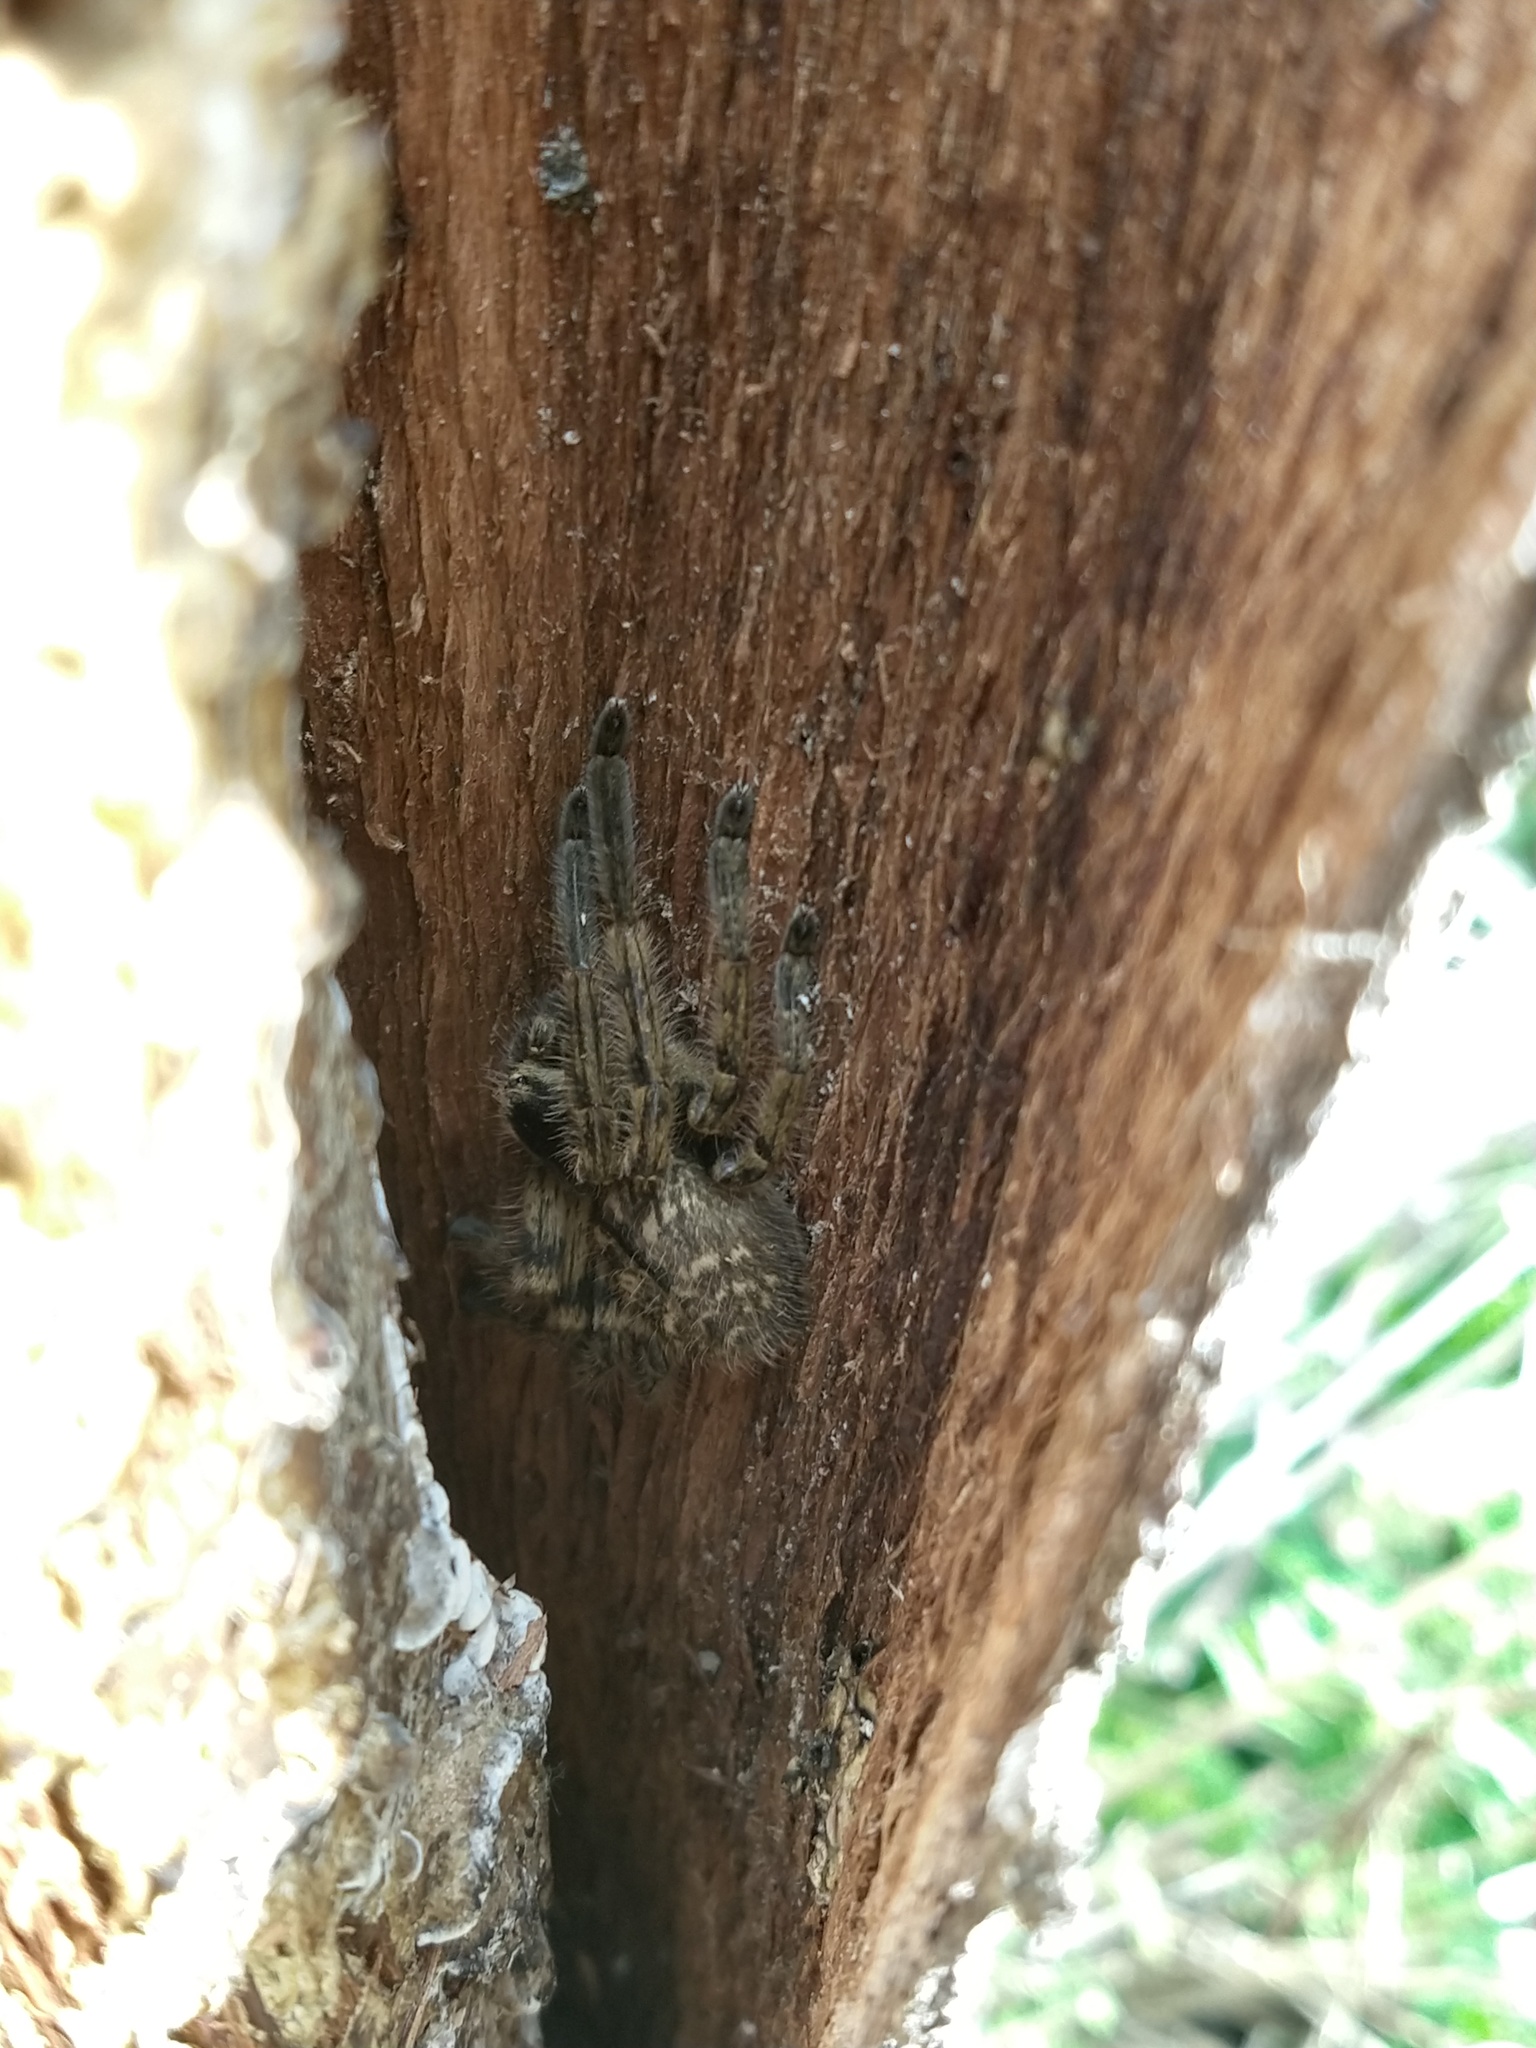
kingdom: Animalia
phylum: Arthropoda
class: Arachnida
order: Araneae
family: Sparassidae
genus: Polybetes
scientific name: Polybetes pythagoricus
